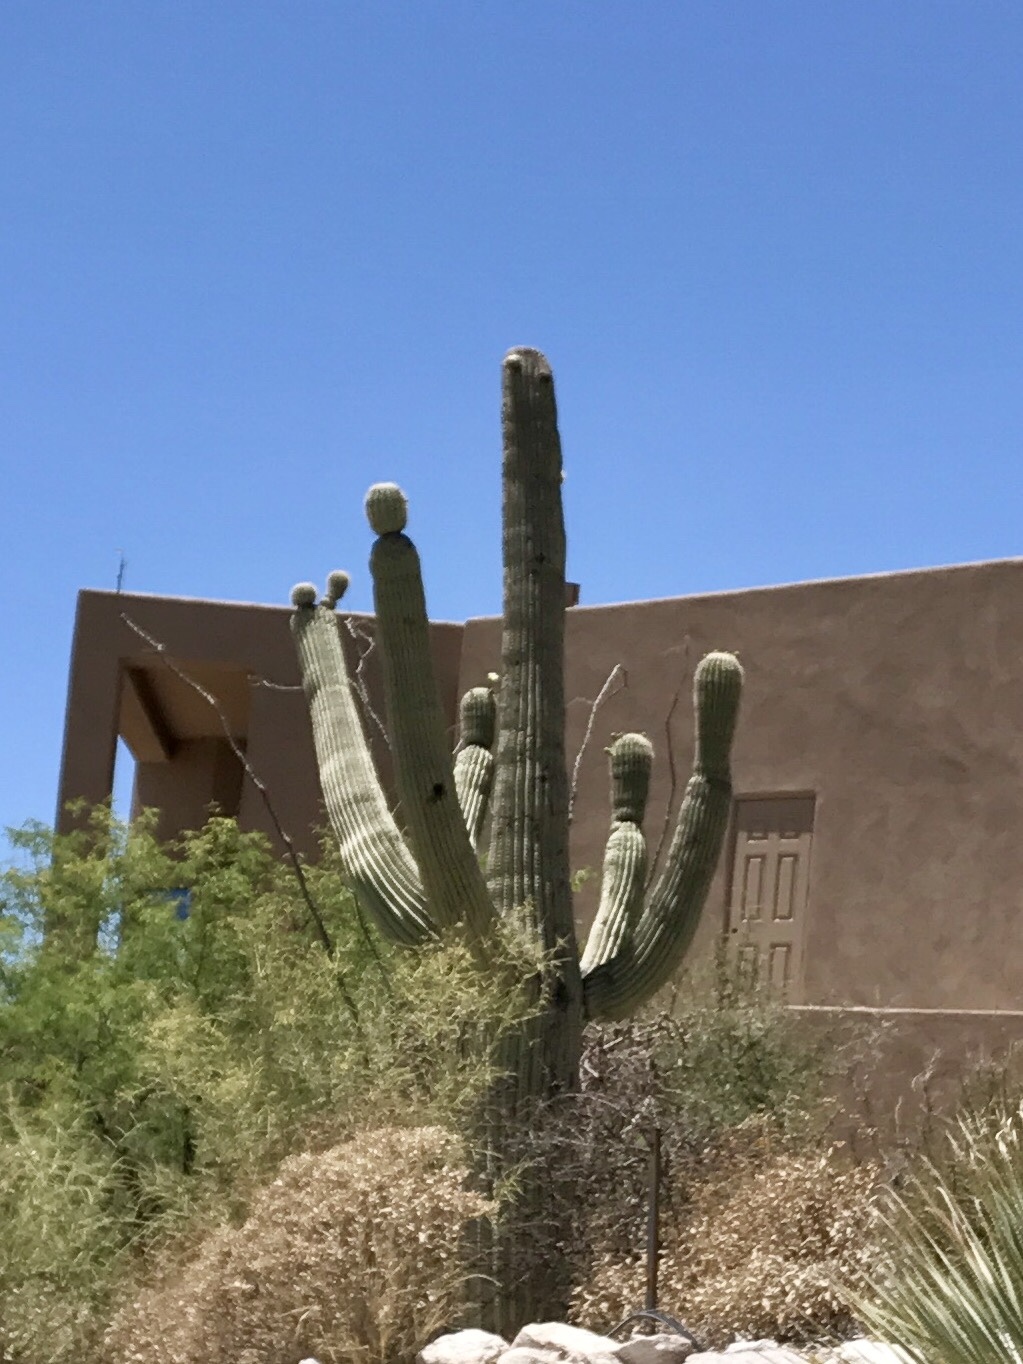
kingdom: Plantae
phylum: Tracheophyta
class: Magnoliopsida
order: Caryophyllales
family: Cactaceae
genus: Carnegiea
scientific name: Carnegiea gigantea
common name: Saguaro
